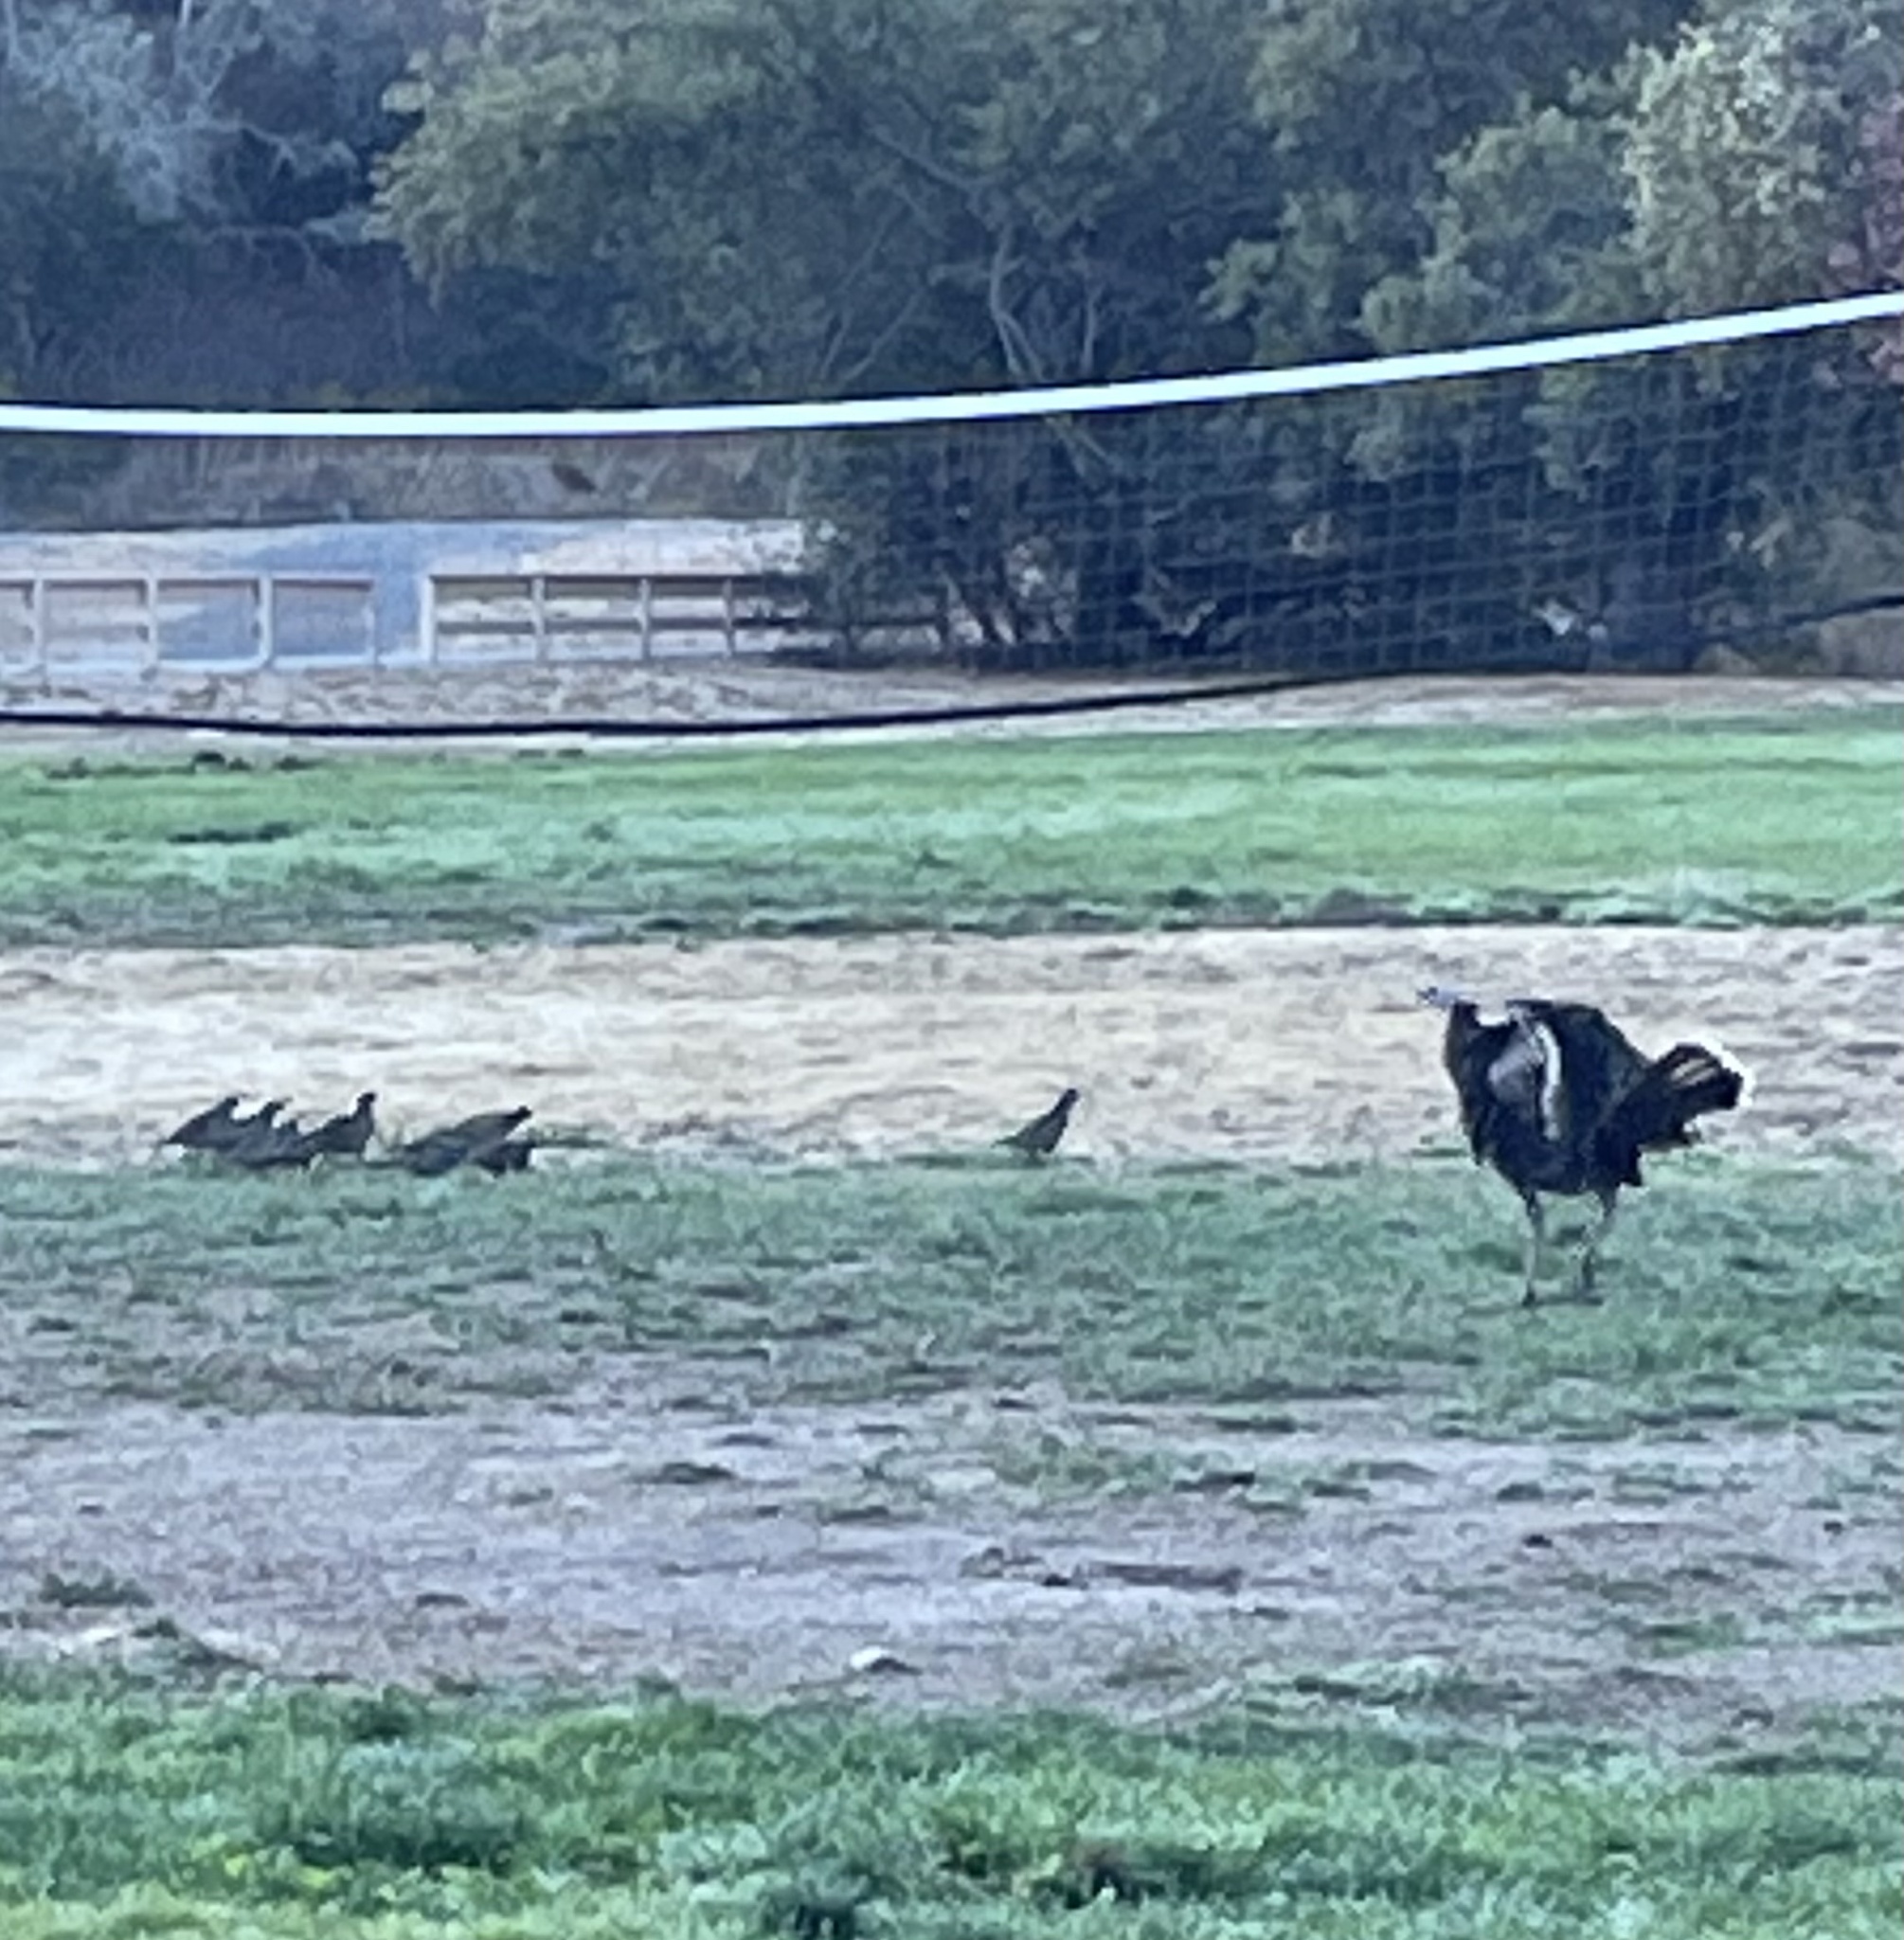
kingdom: Animalia
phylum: Chordata
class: Aves
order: Galliformes
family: Odontophoridae
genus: Callipepla
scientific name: Callipepla californica
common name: California quail
